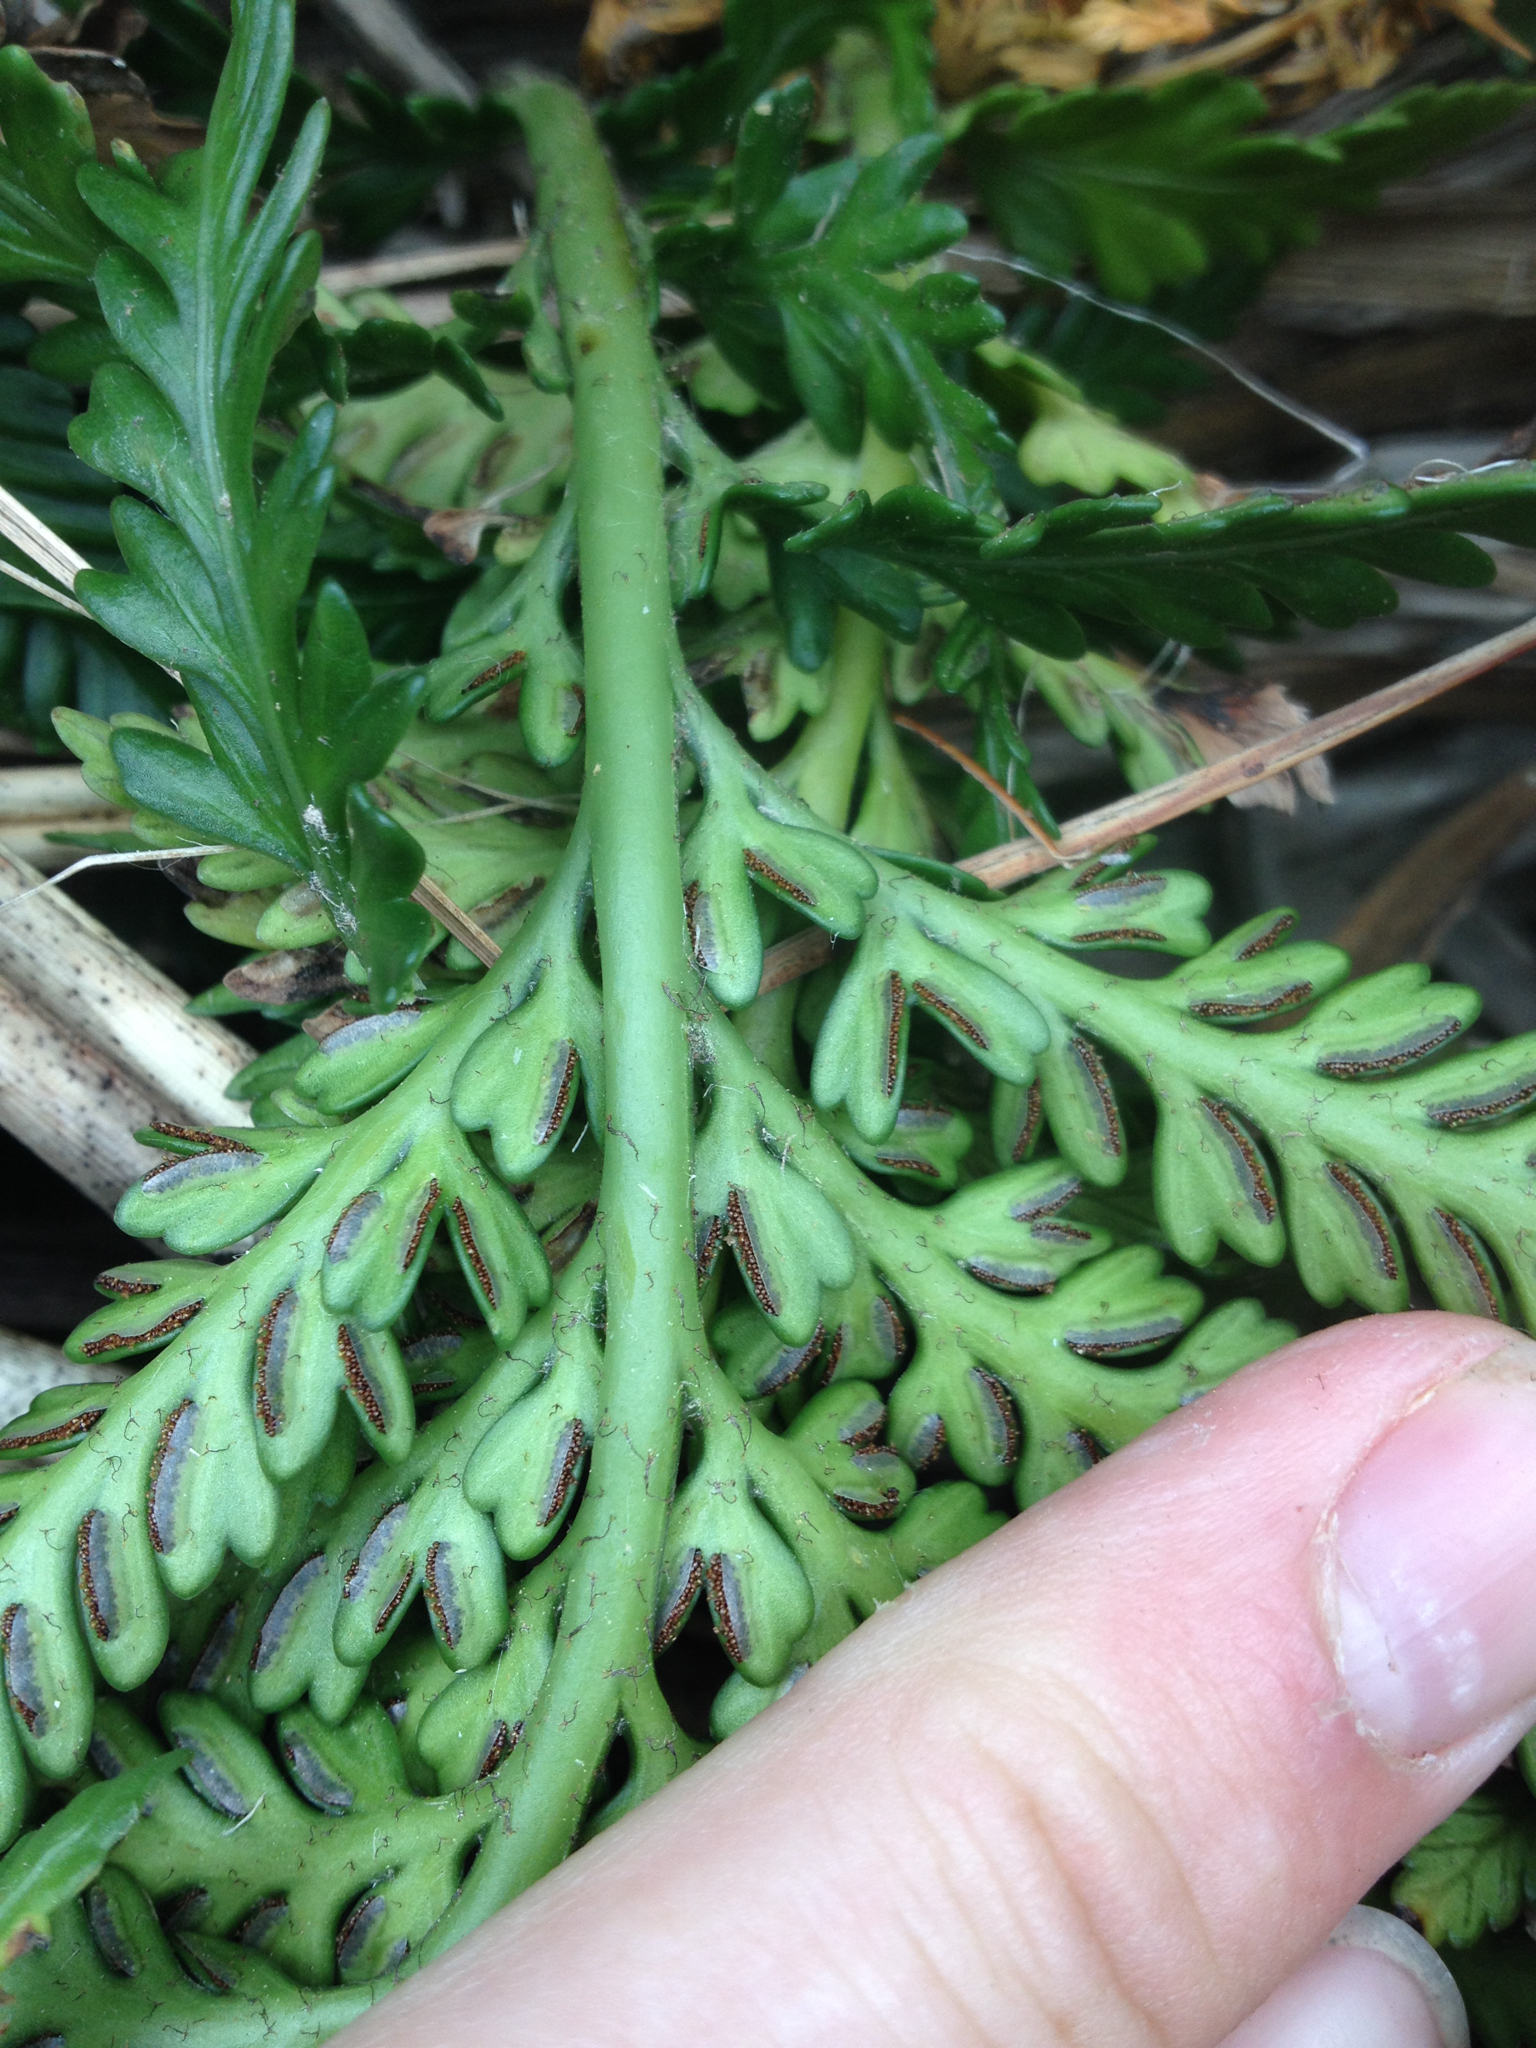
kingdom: Plantae
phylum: Tracheophyta
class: Polypodiopsida
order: Polypodiales
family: Aspleniaceae
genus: Asplenium
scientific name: Asplenium appendiculatum
